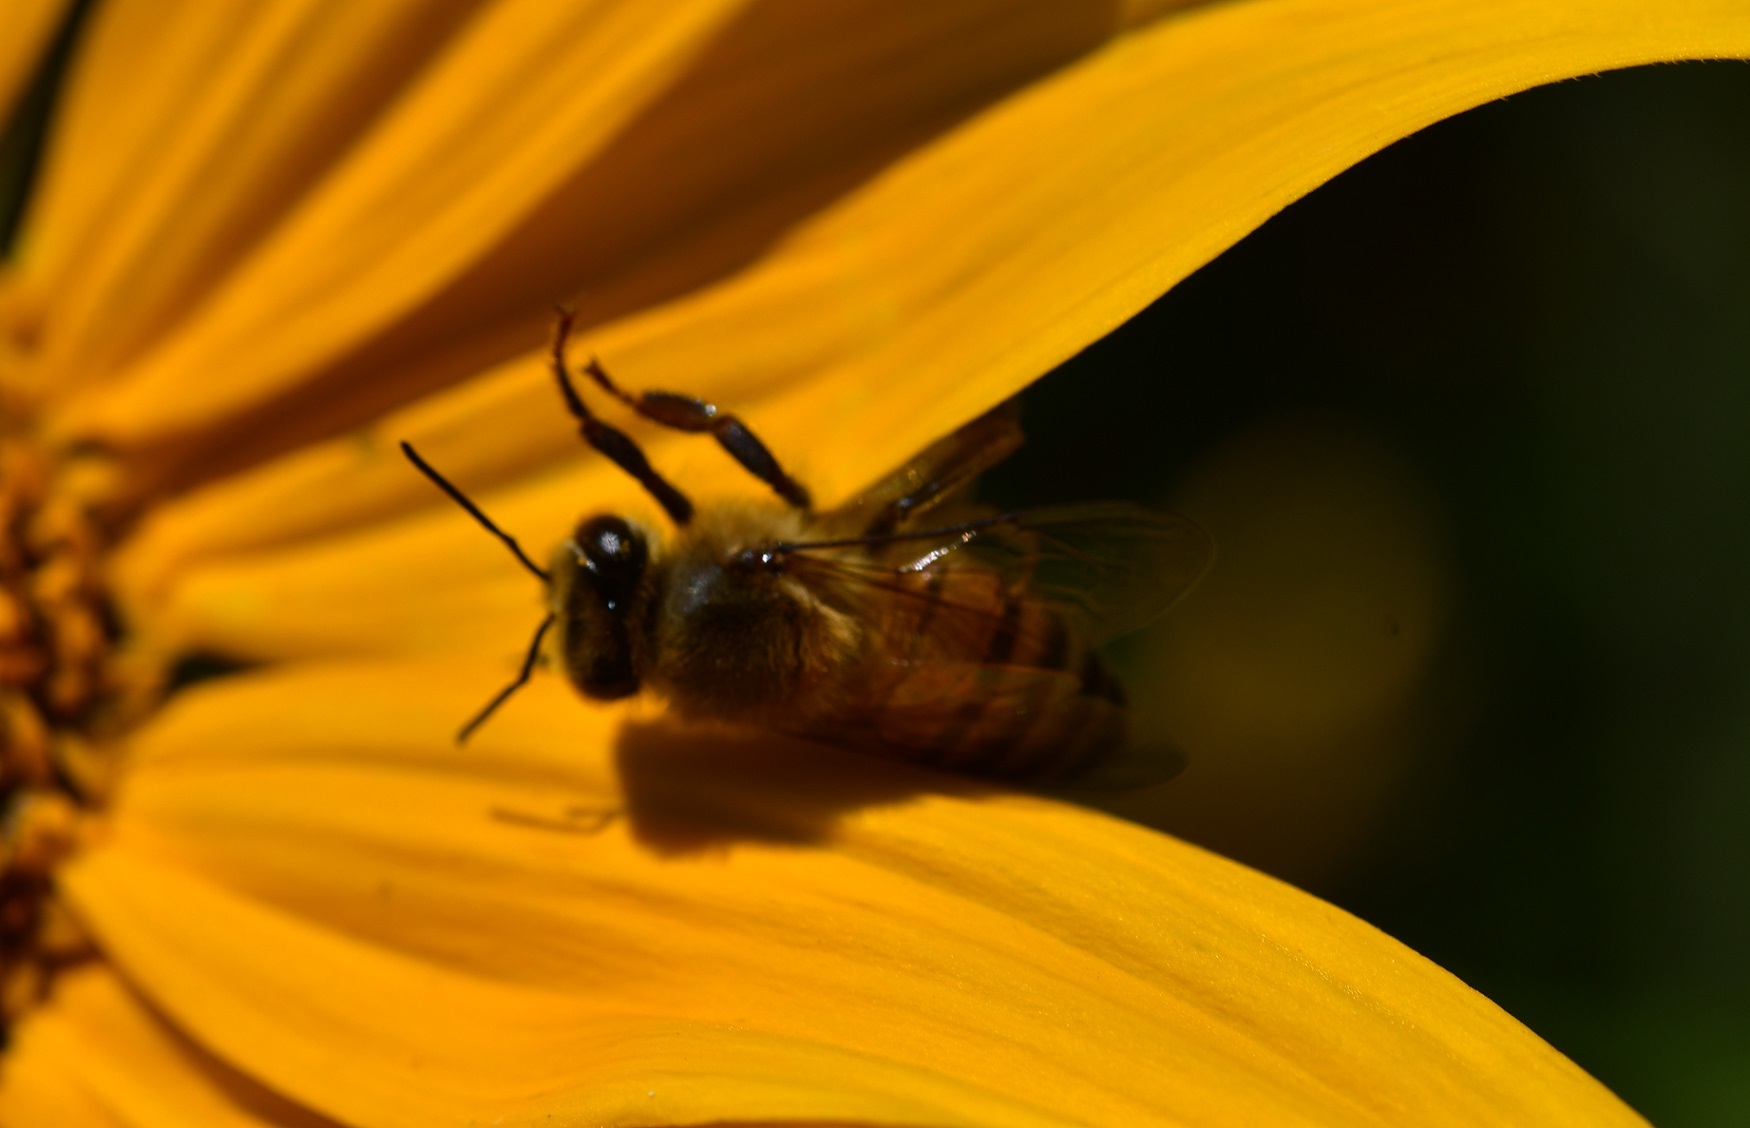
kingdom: Animalia
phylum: Arthropoda
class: Insecta
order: Hymenoptera
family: Apidae
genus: Apis
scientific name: Apis mellifera
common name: Honey bee
